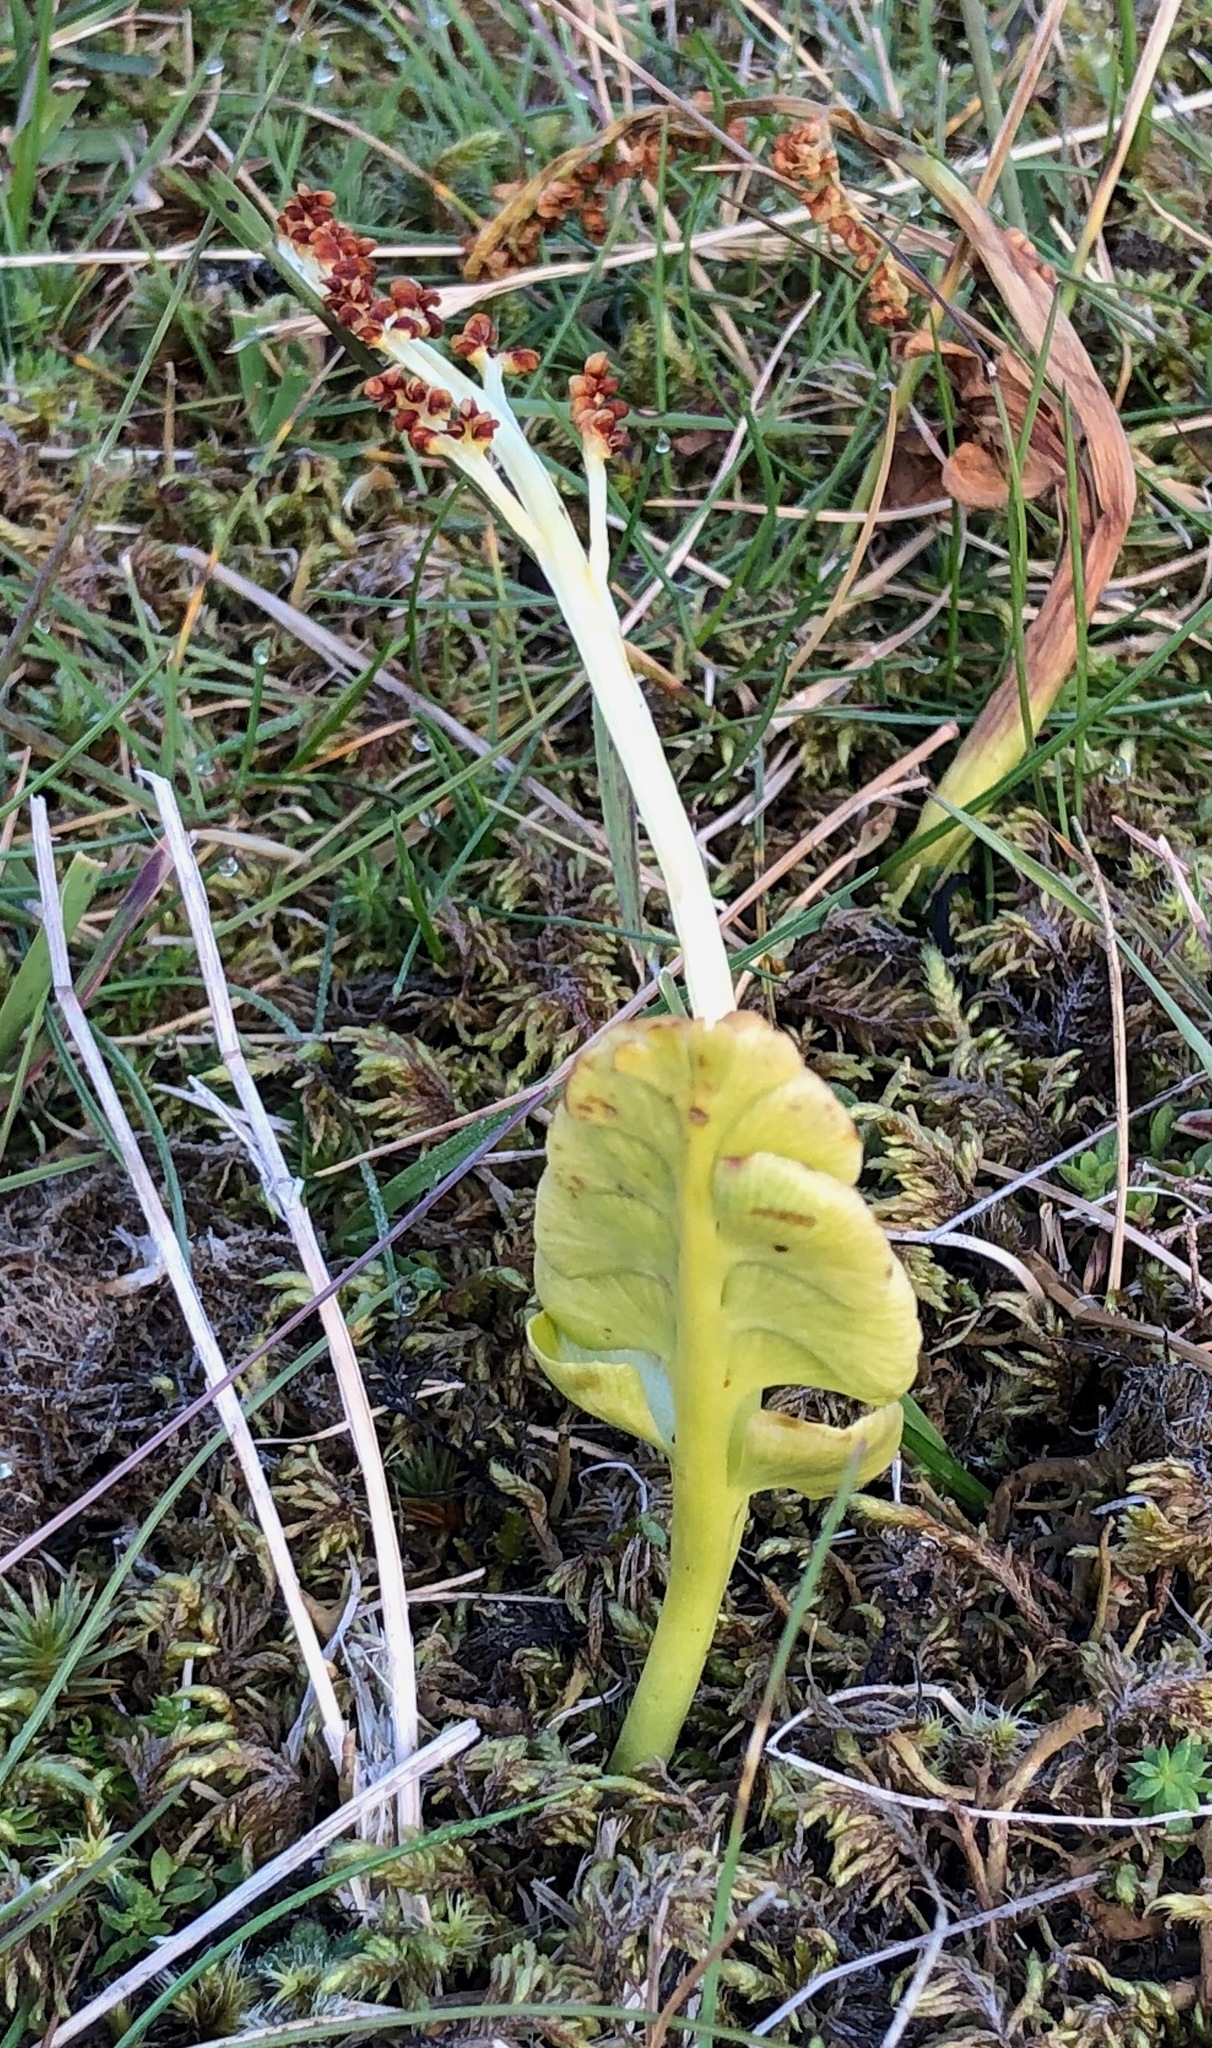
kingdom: Plantae
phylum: Tracheophyta
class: Polypodiopsida
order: Ophioglossales
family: Ophioglossaceae
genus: Botrychium
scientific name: Botrychium lunaria
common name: Moonwort
